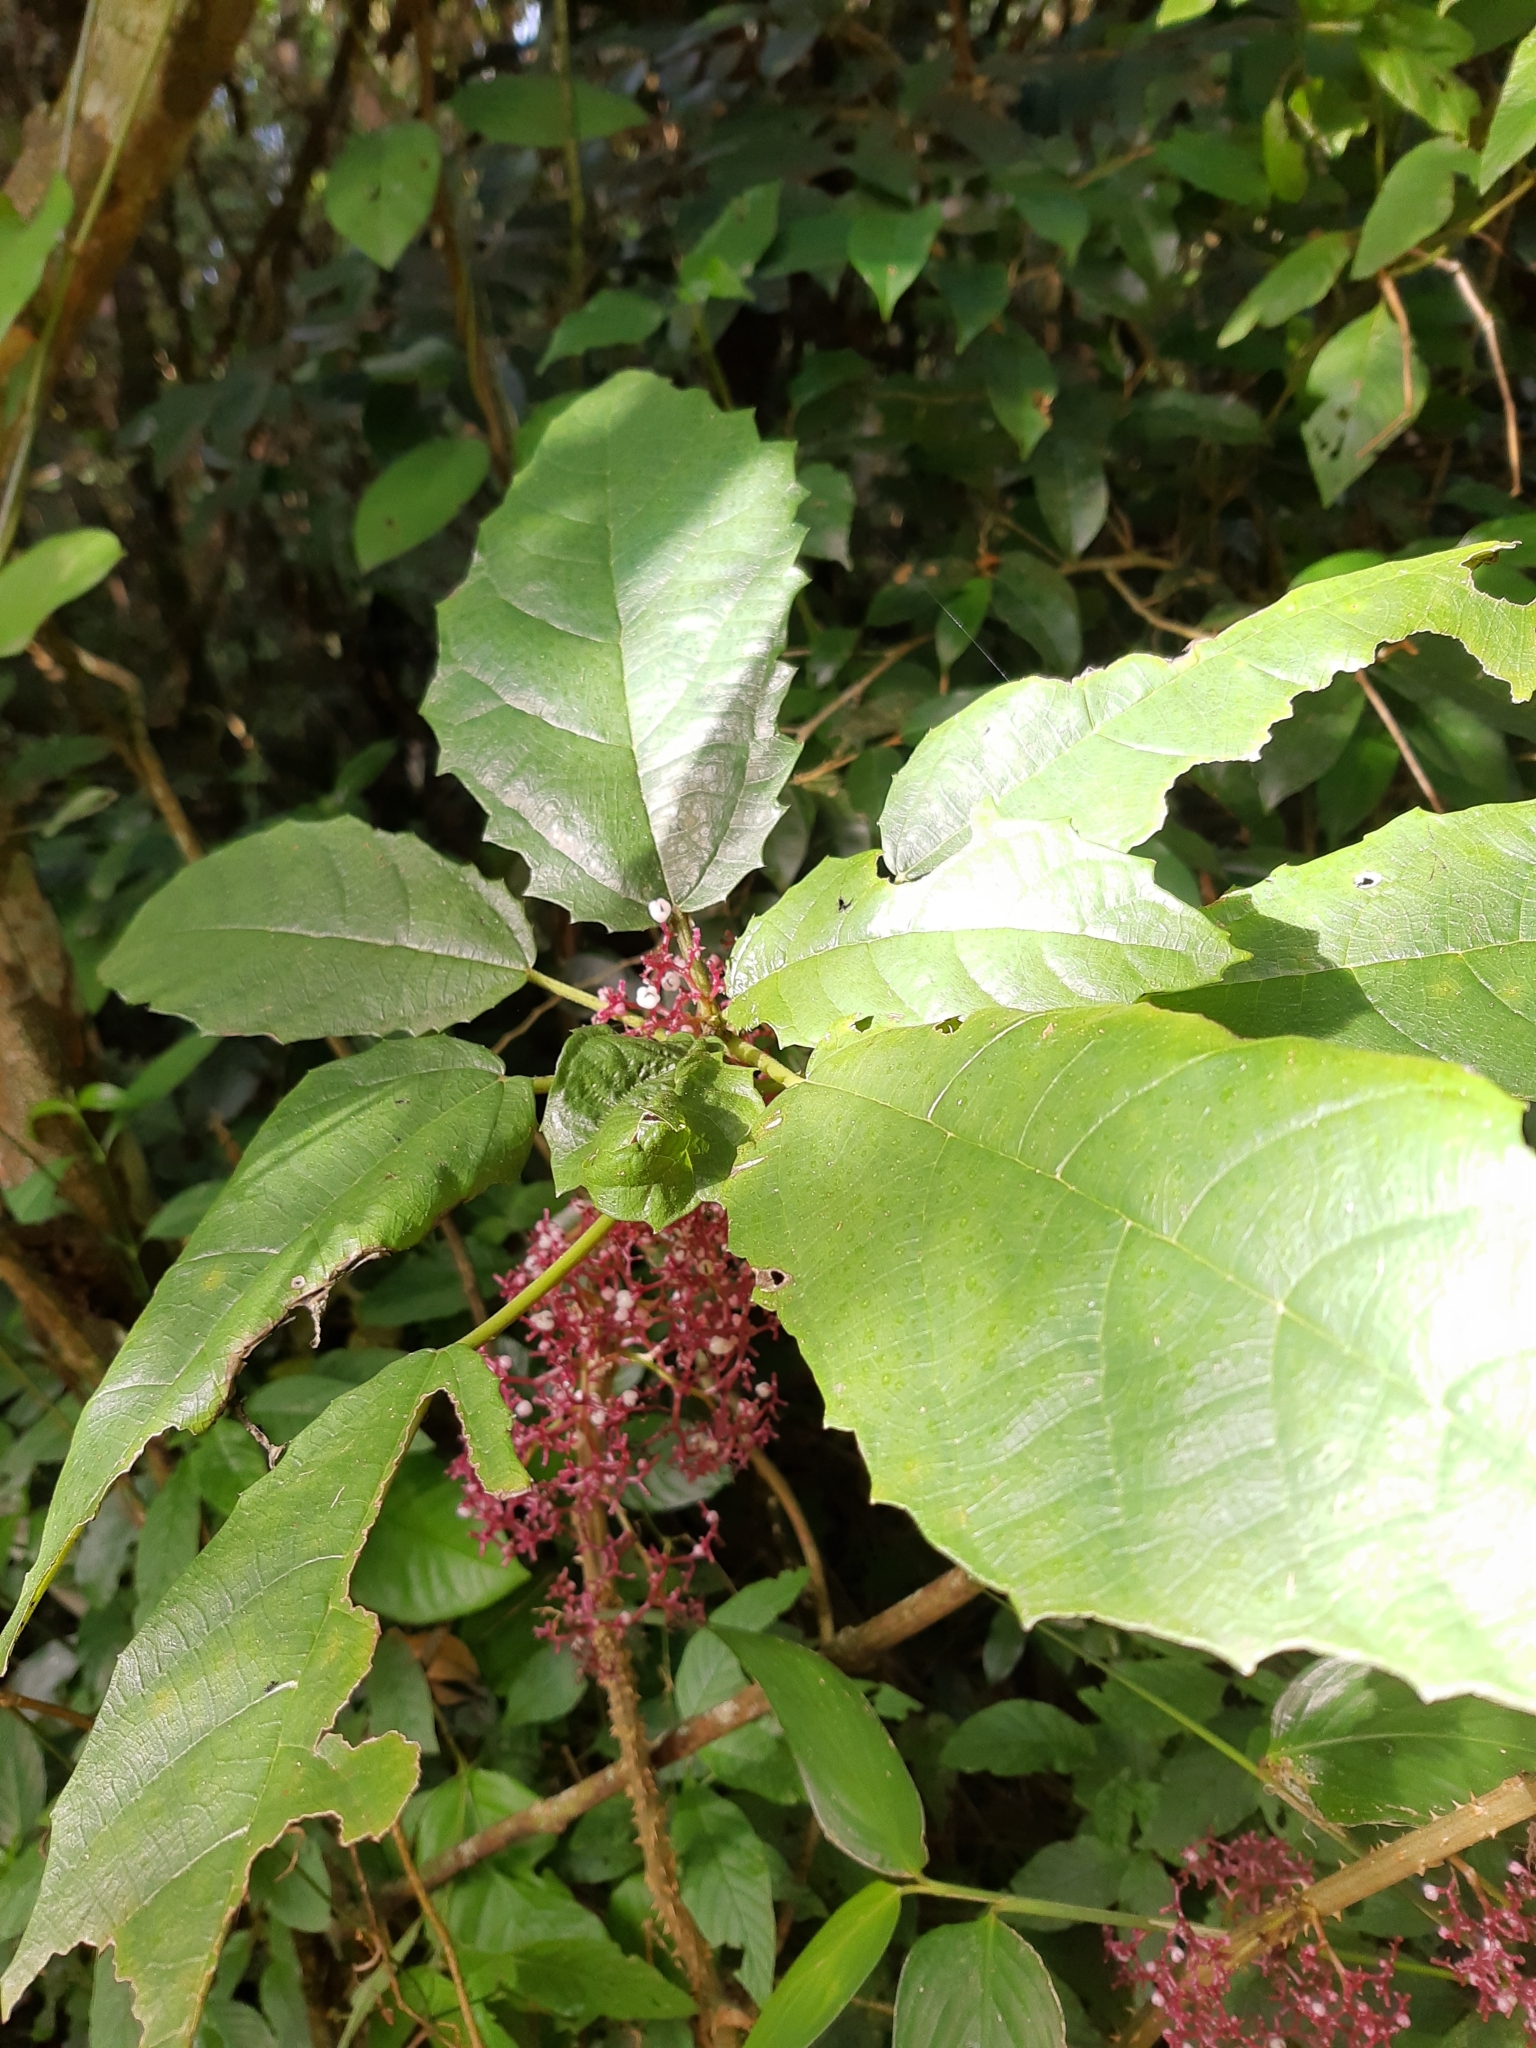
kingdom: Plantae
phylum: Tracheophyta
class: Magnoliopsida
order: Rosales
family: Urticaceae
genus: Urera
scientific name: Urera nitida
